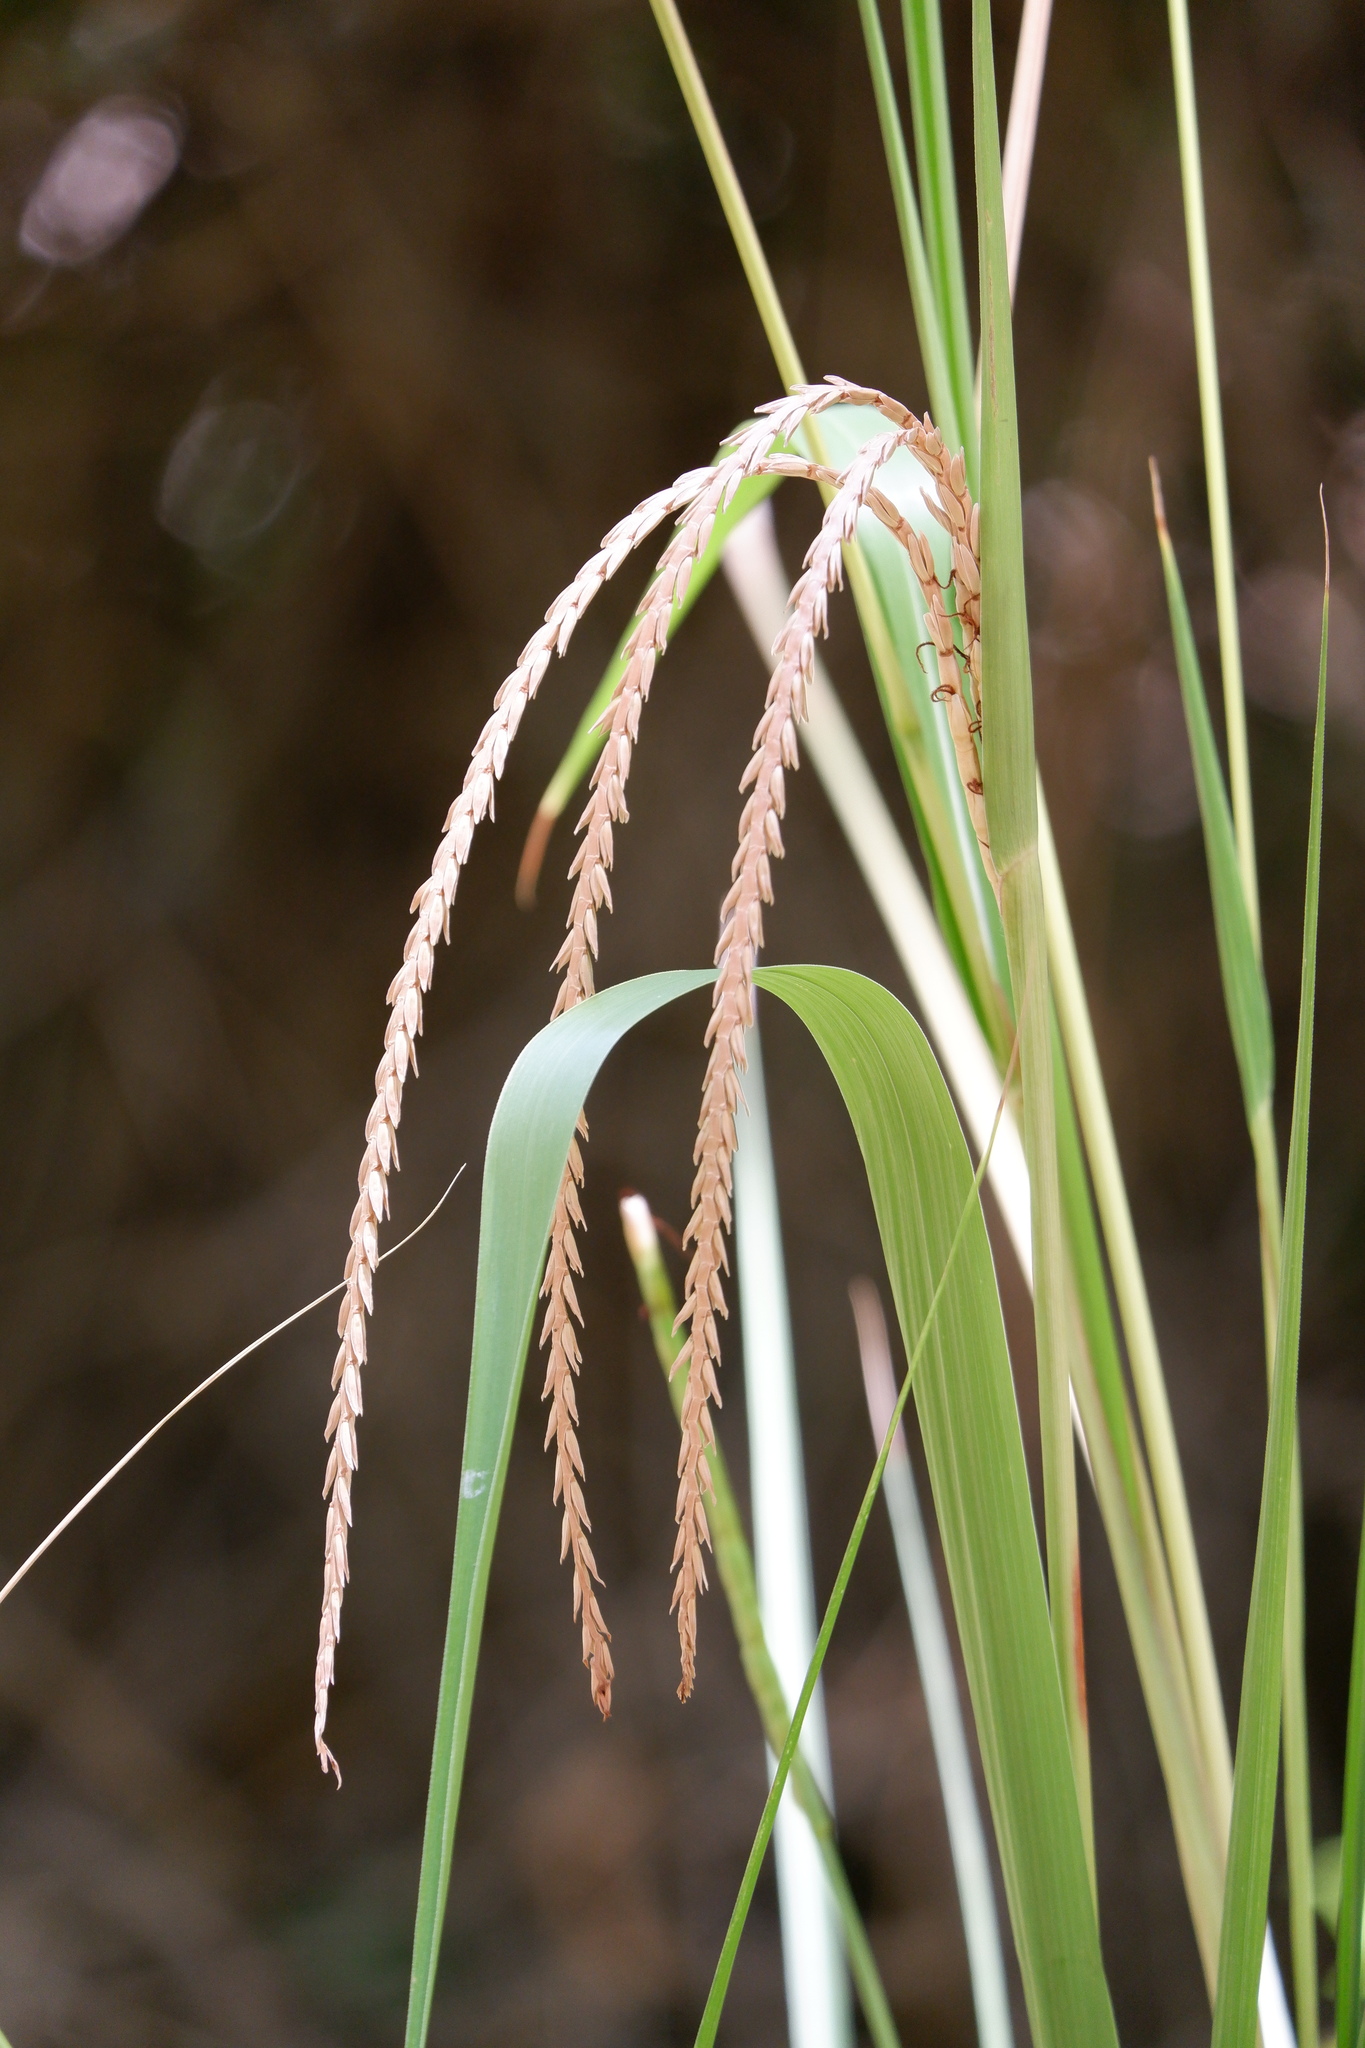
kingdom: Plantae
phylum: Tracheophyta
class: Liliopsida
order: Poales
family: Poaceae
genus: Tripsacum
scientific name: Tripsacum dactyloides
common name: Buffalo-grass
